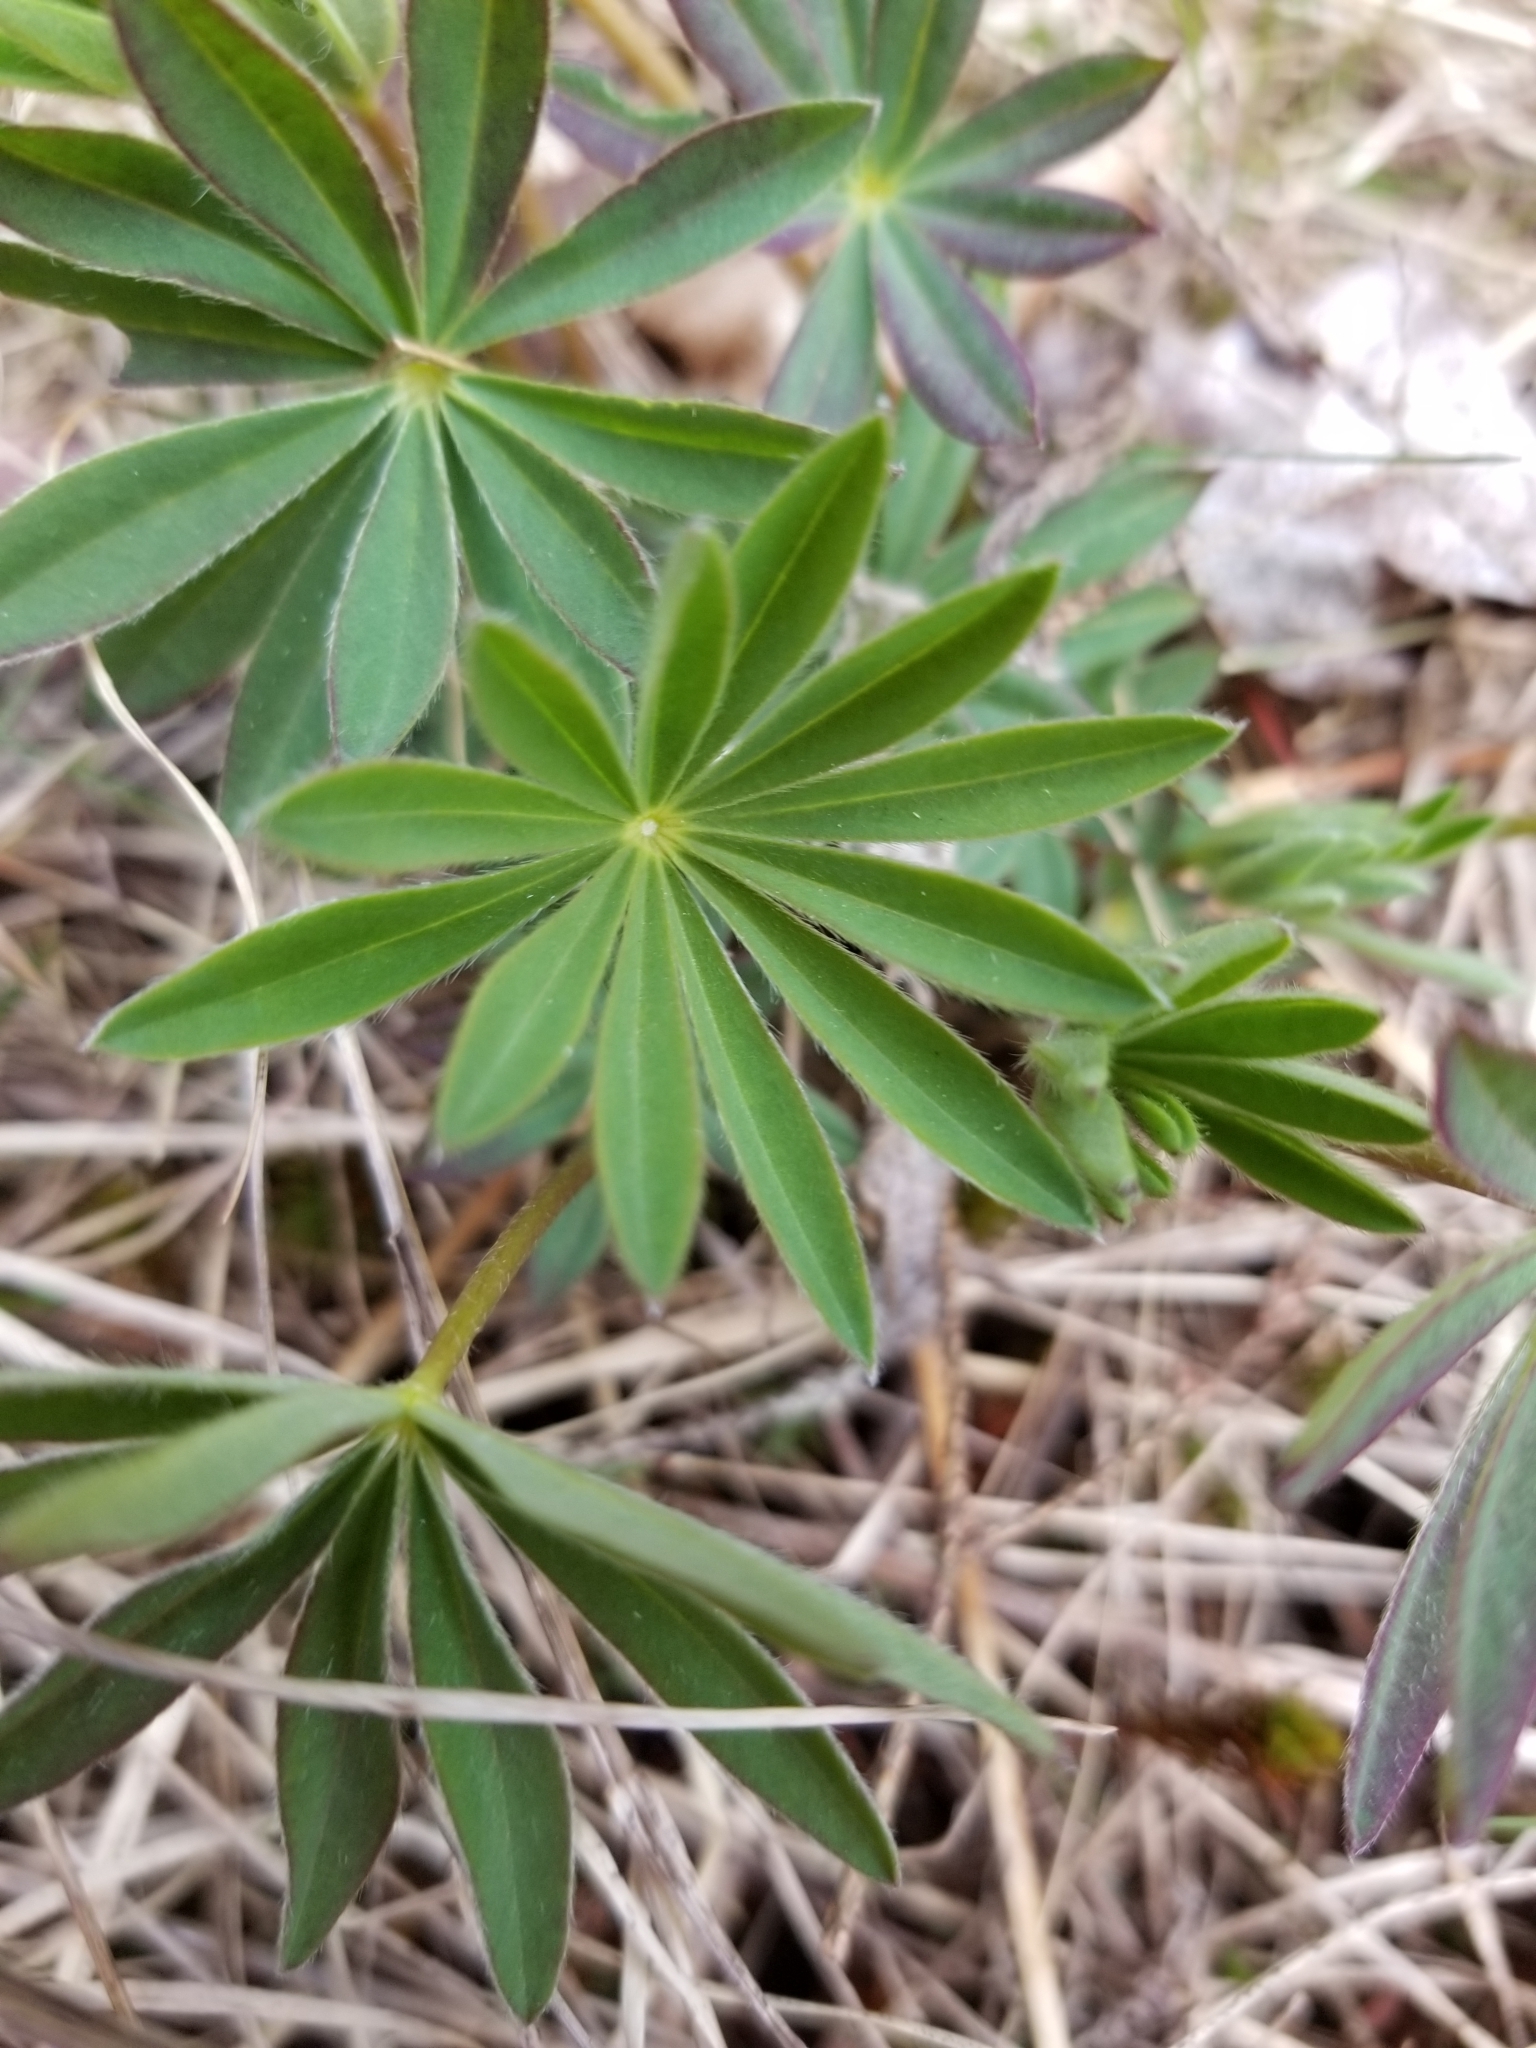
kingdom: Plantae
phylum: Tracheophyta
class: Magnoliopsida
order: Fabales
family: Fabaceae
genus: Lupinus
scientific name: Lupinus polyphyllus
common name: Garden lupin
